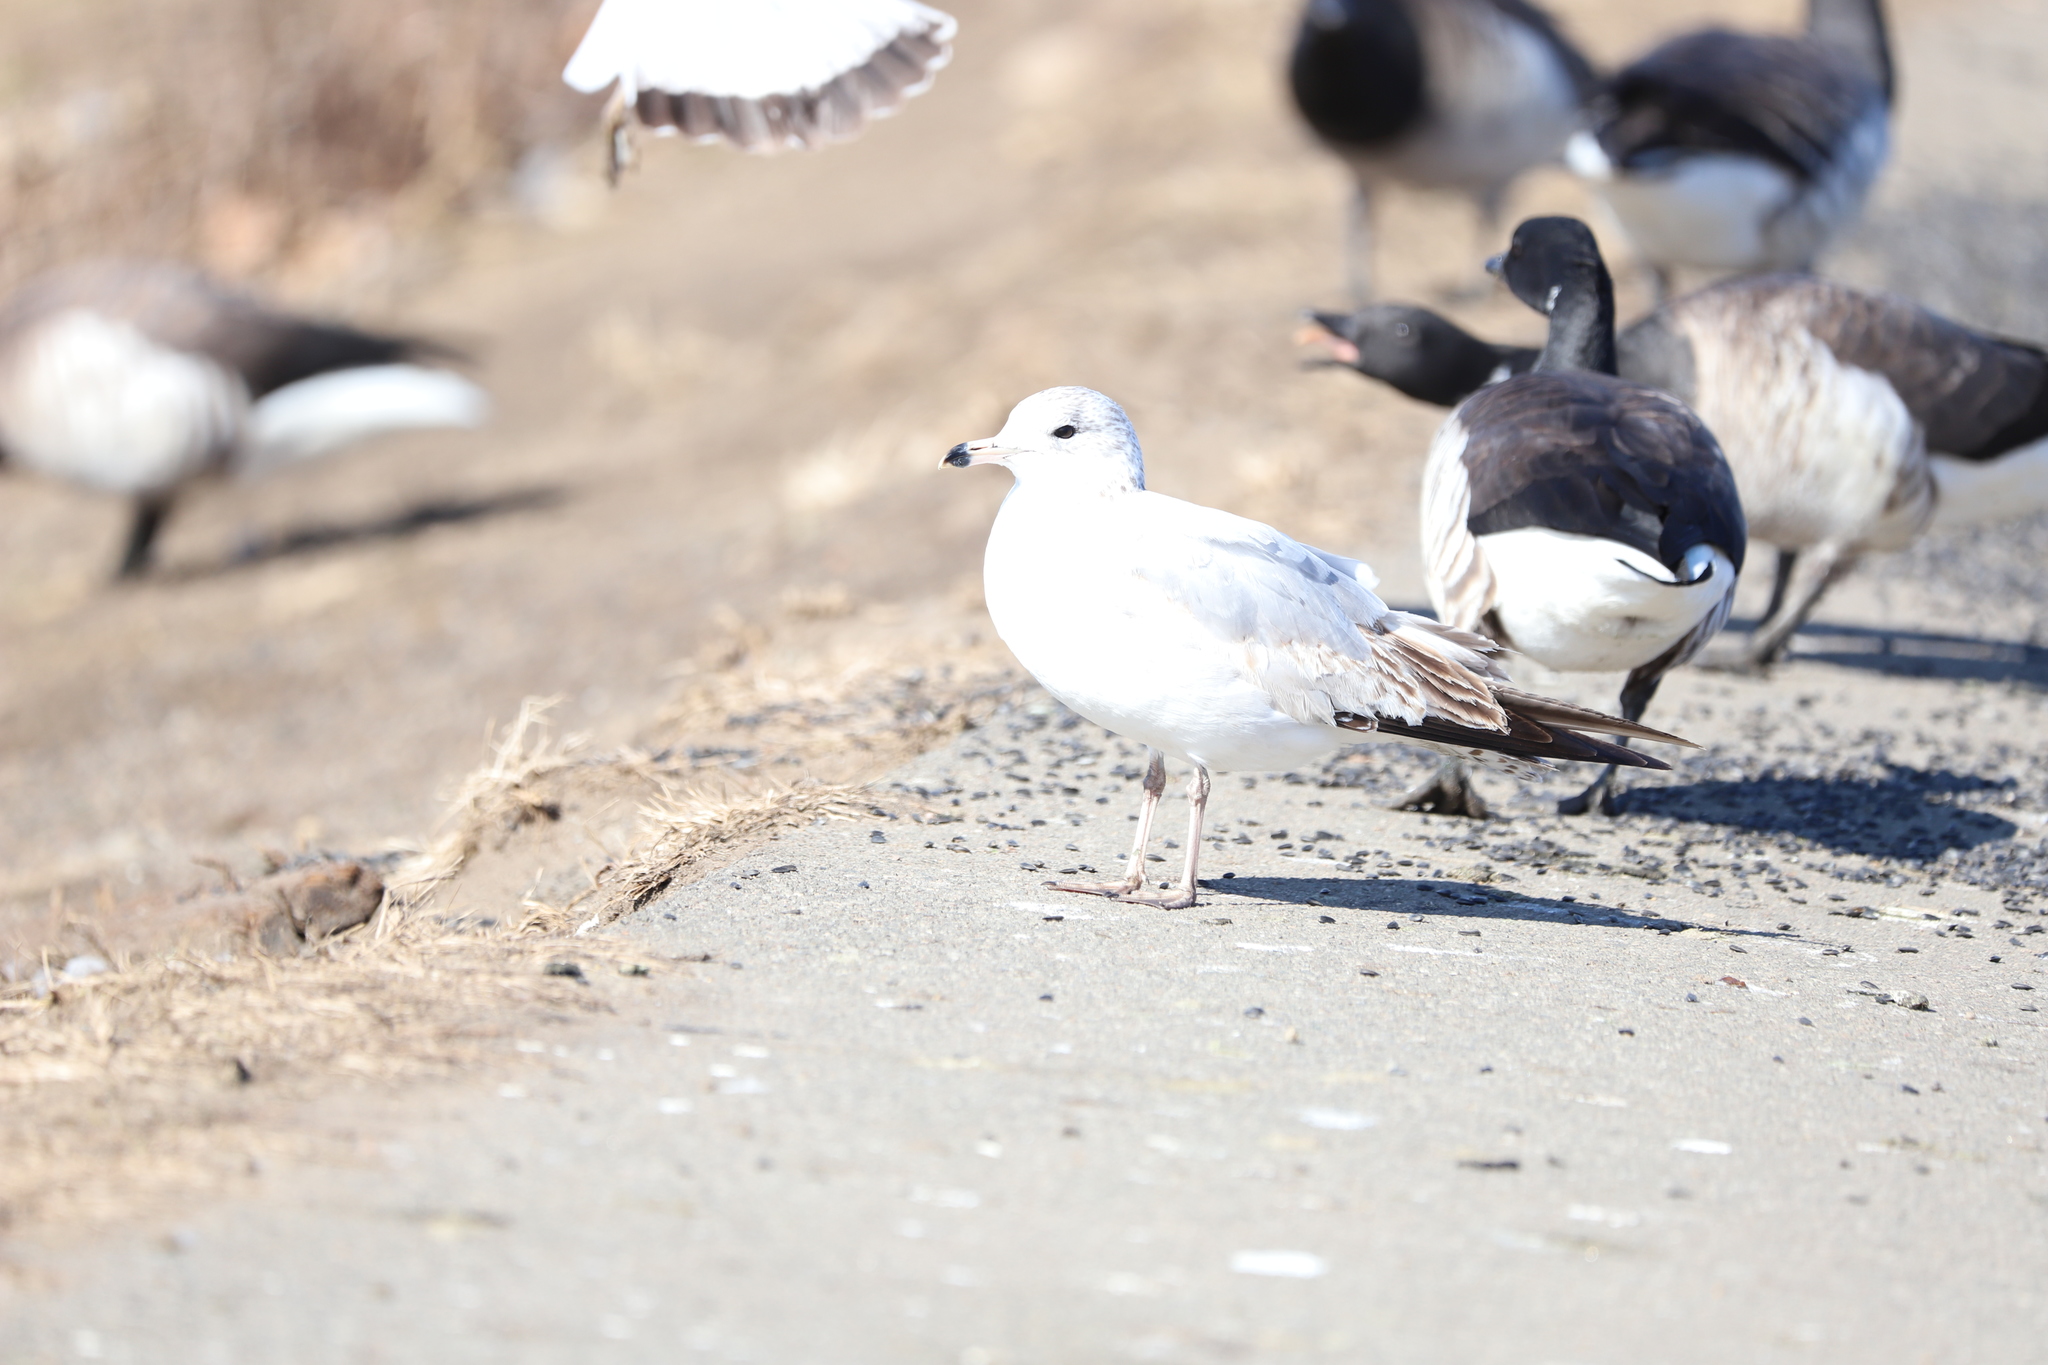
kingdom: Animalia
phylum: Chordata
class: Aves
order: Charadriiformes
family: Laridae
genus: Larus
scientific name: Larus delawarensis
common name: Ring-billed gull
